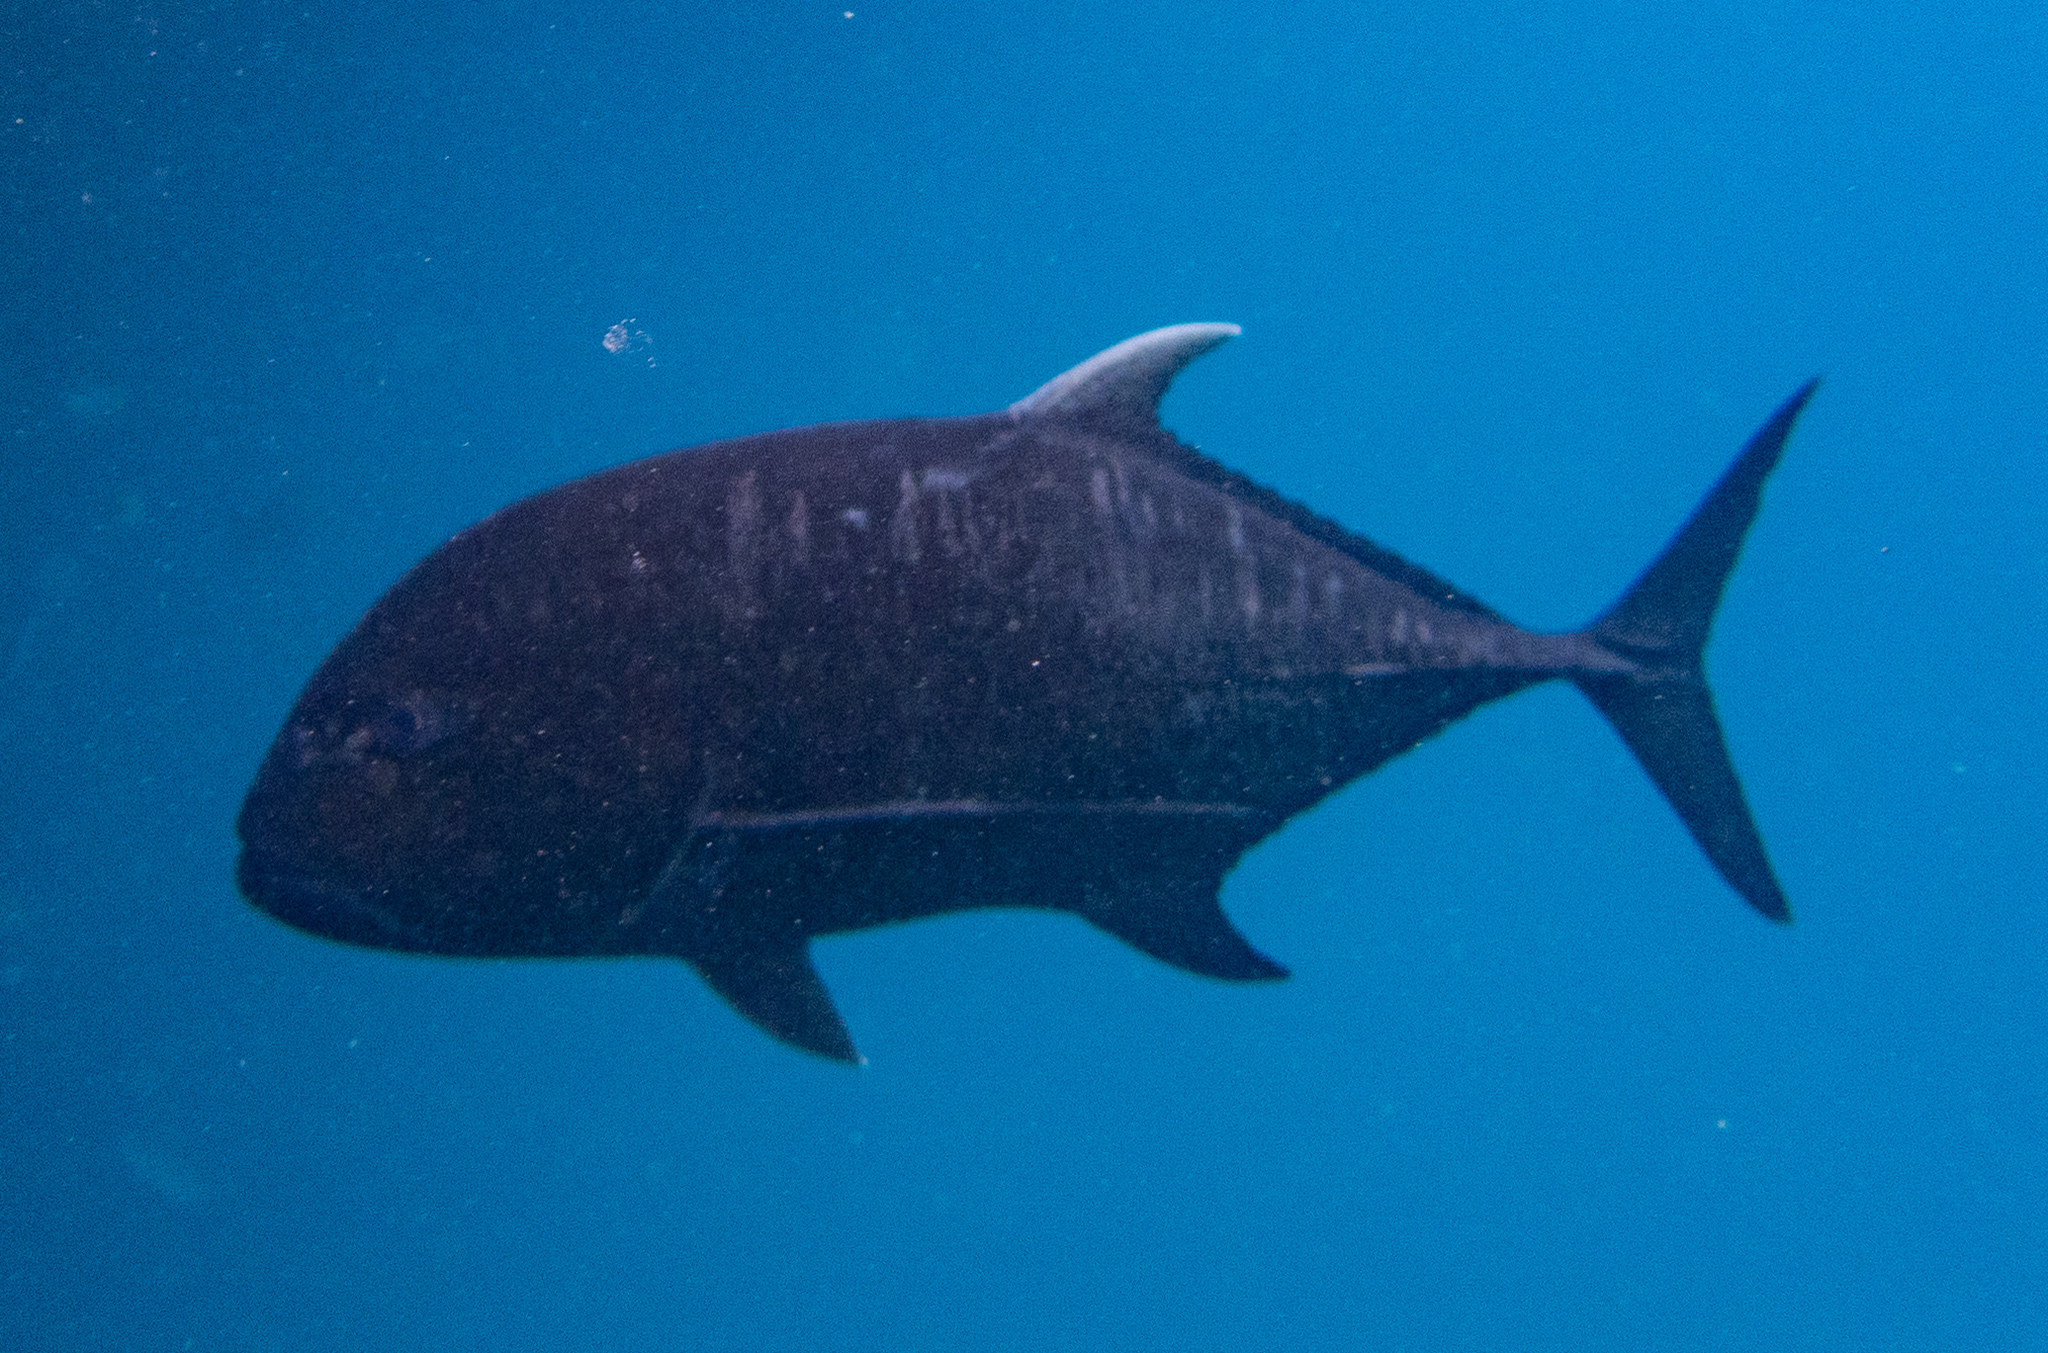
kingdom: Animalia
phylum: Chordata
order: Perciformes
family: Carangidae
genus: Caranx
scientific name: Caranx ignobilis
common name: Giant trevally
